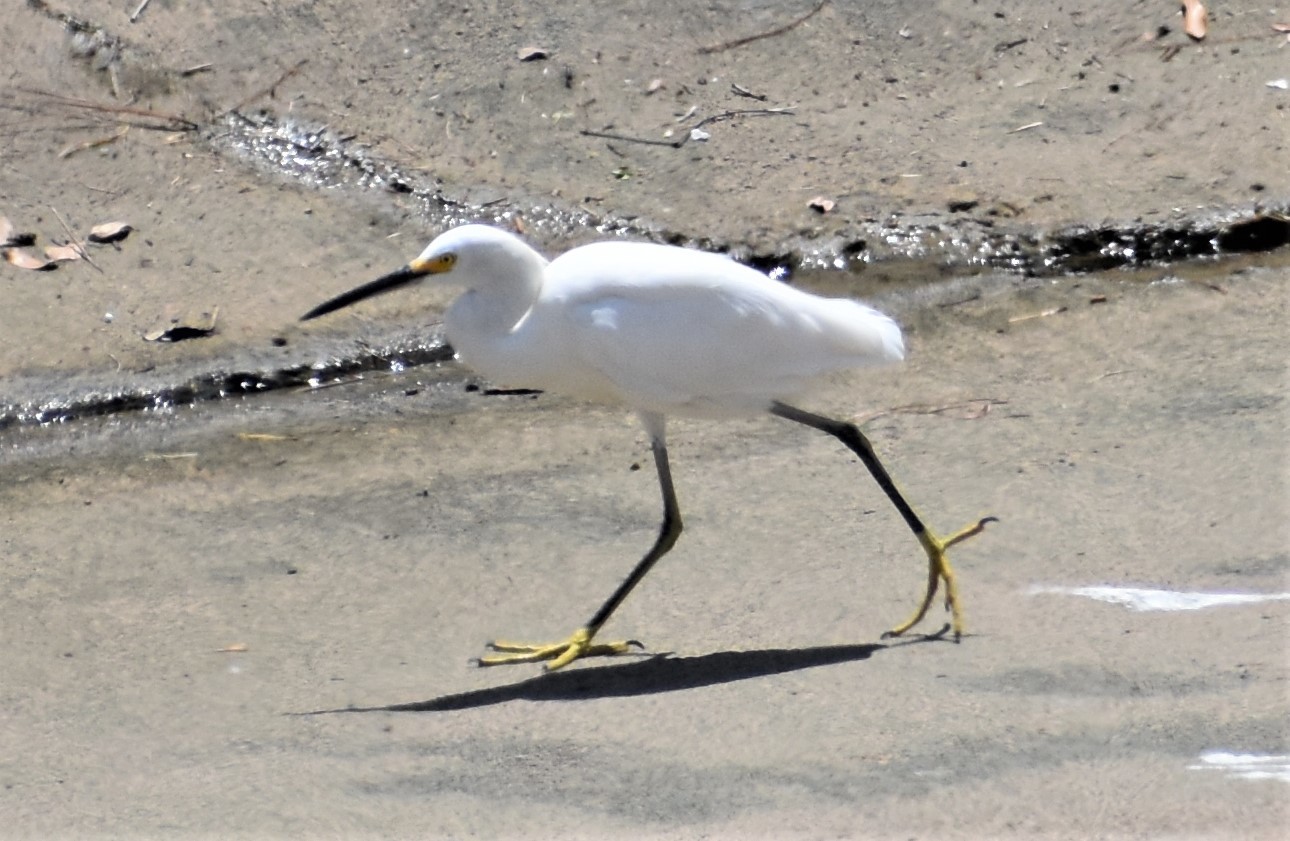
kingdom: Animalia
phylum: Chordata
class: Aves
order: Pelecaniformes
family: Ardeidae
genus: Egretta
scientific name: Egretta thula
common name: Snowy egret
